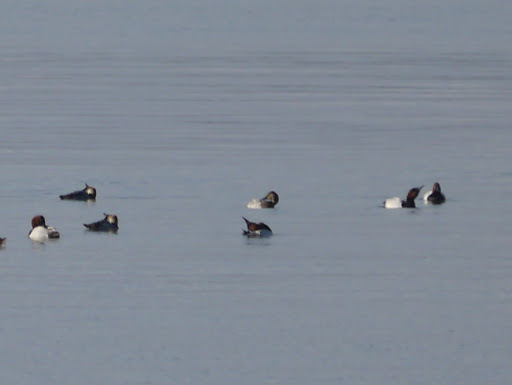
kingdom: Animalia
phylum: Chordata
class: Aves
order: Anseriformes
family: Anatidae
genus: Aythya
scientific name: Aythya valisineria
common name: Canvasback
